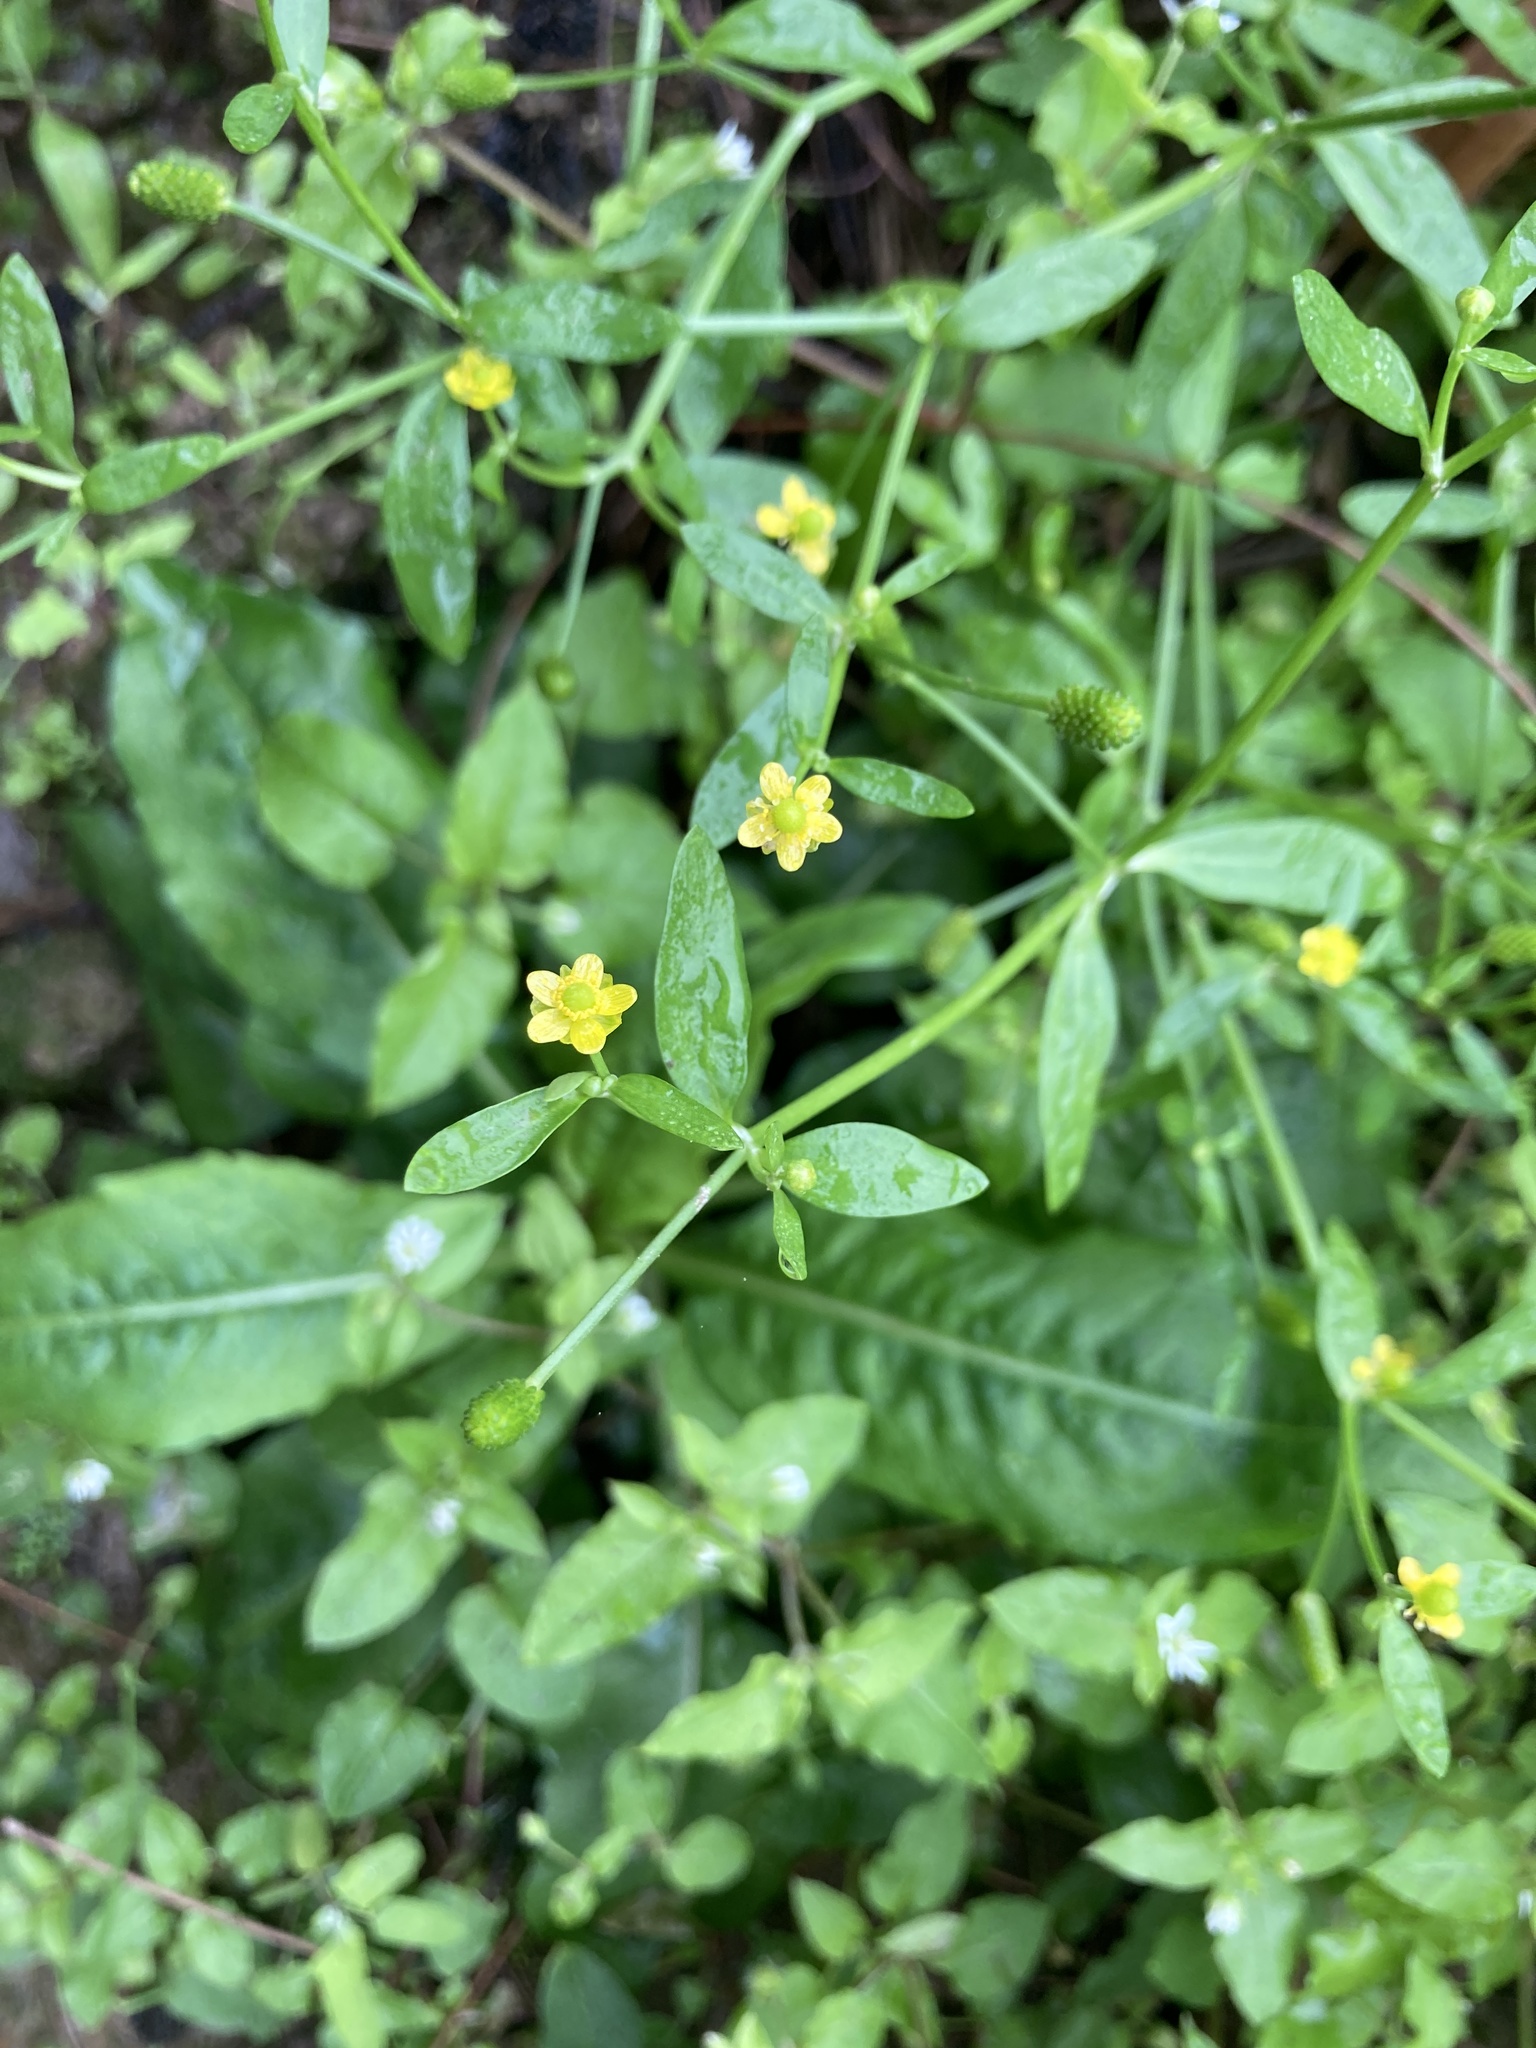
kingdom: Plantae
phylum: Tracheophyta
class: Magnoliopsida
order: Ranunculales
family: Ranunculaceae
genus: Ranunculus
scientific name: Ranunculus sceleratus
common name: Celery-leaved buttercup
